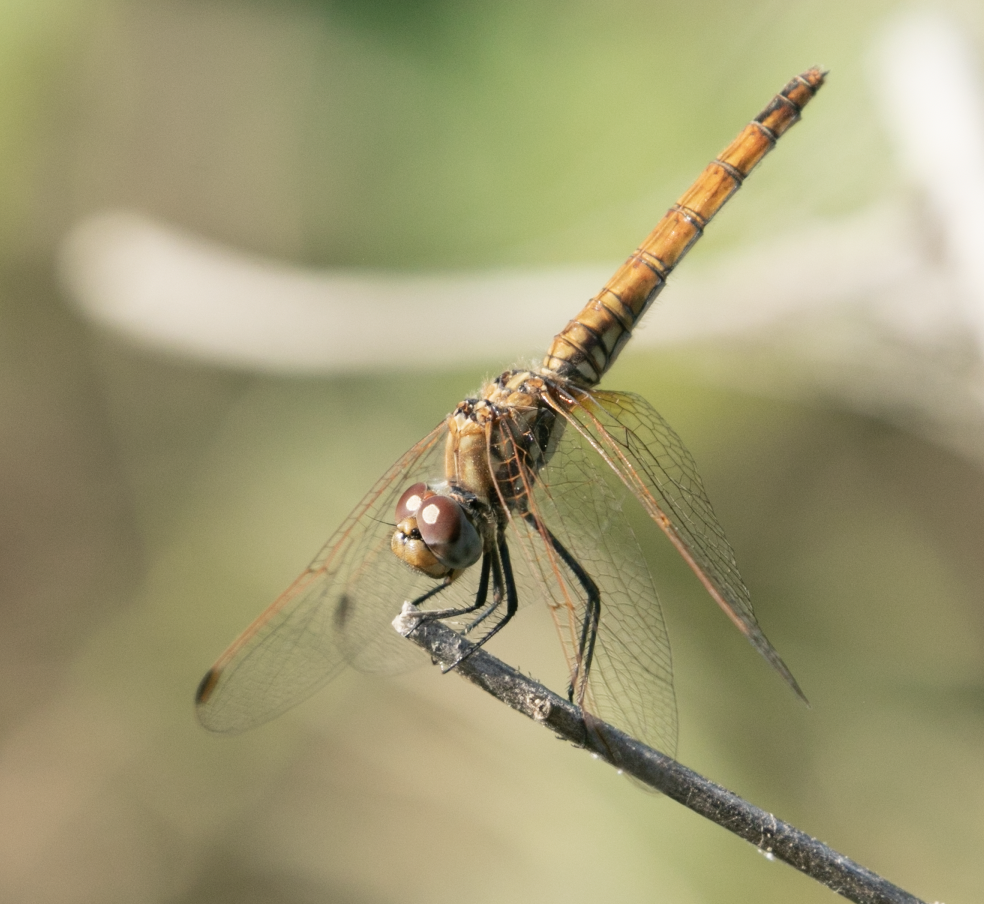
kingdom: Animalia
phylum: Arthropoda
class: Insecta
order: Odonata
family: Libellulidae
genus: Trithemis
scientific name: Trithemis annulata
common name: Violet dropwing
